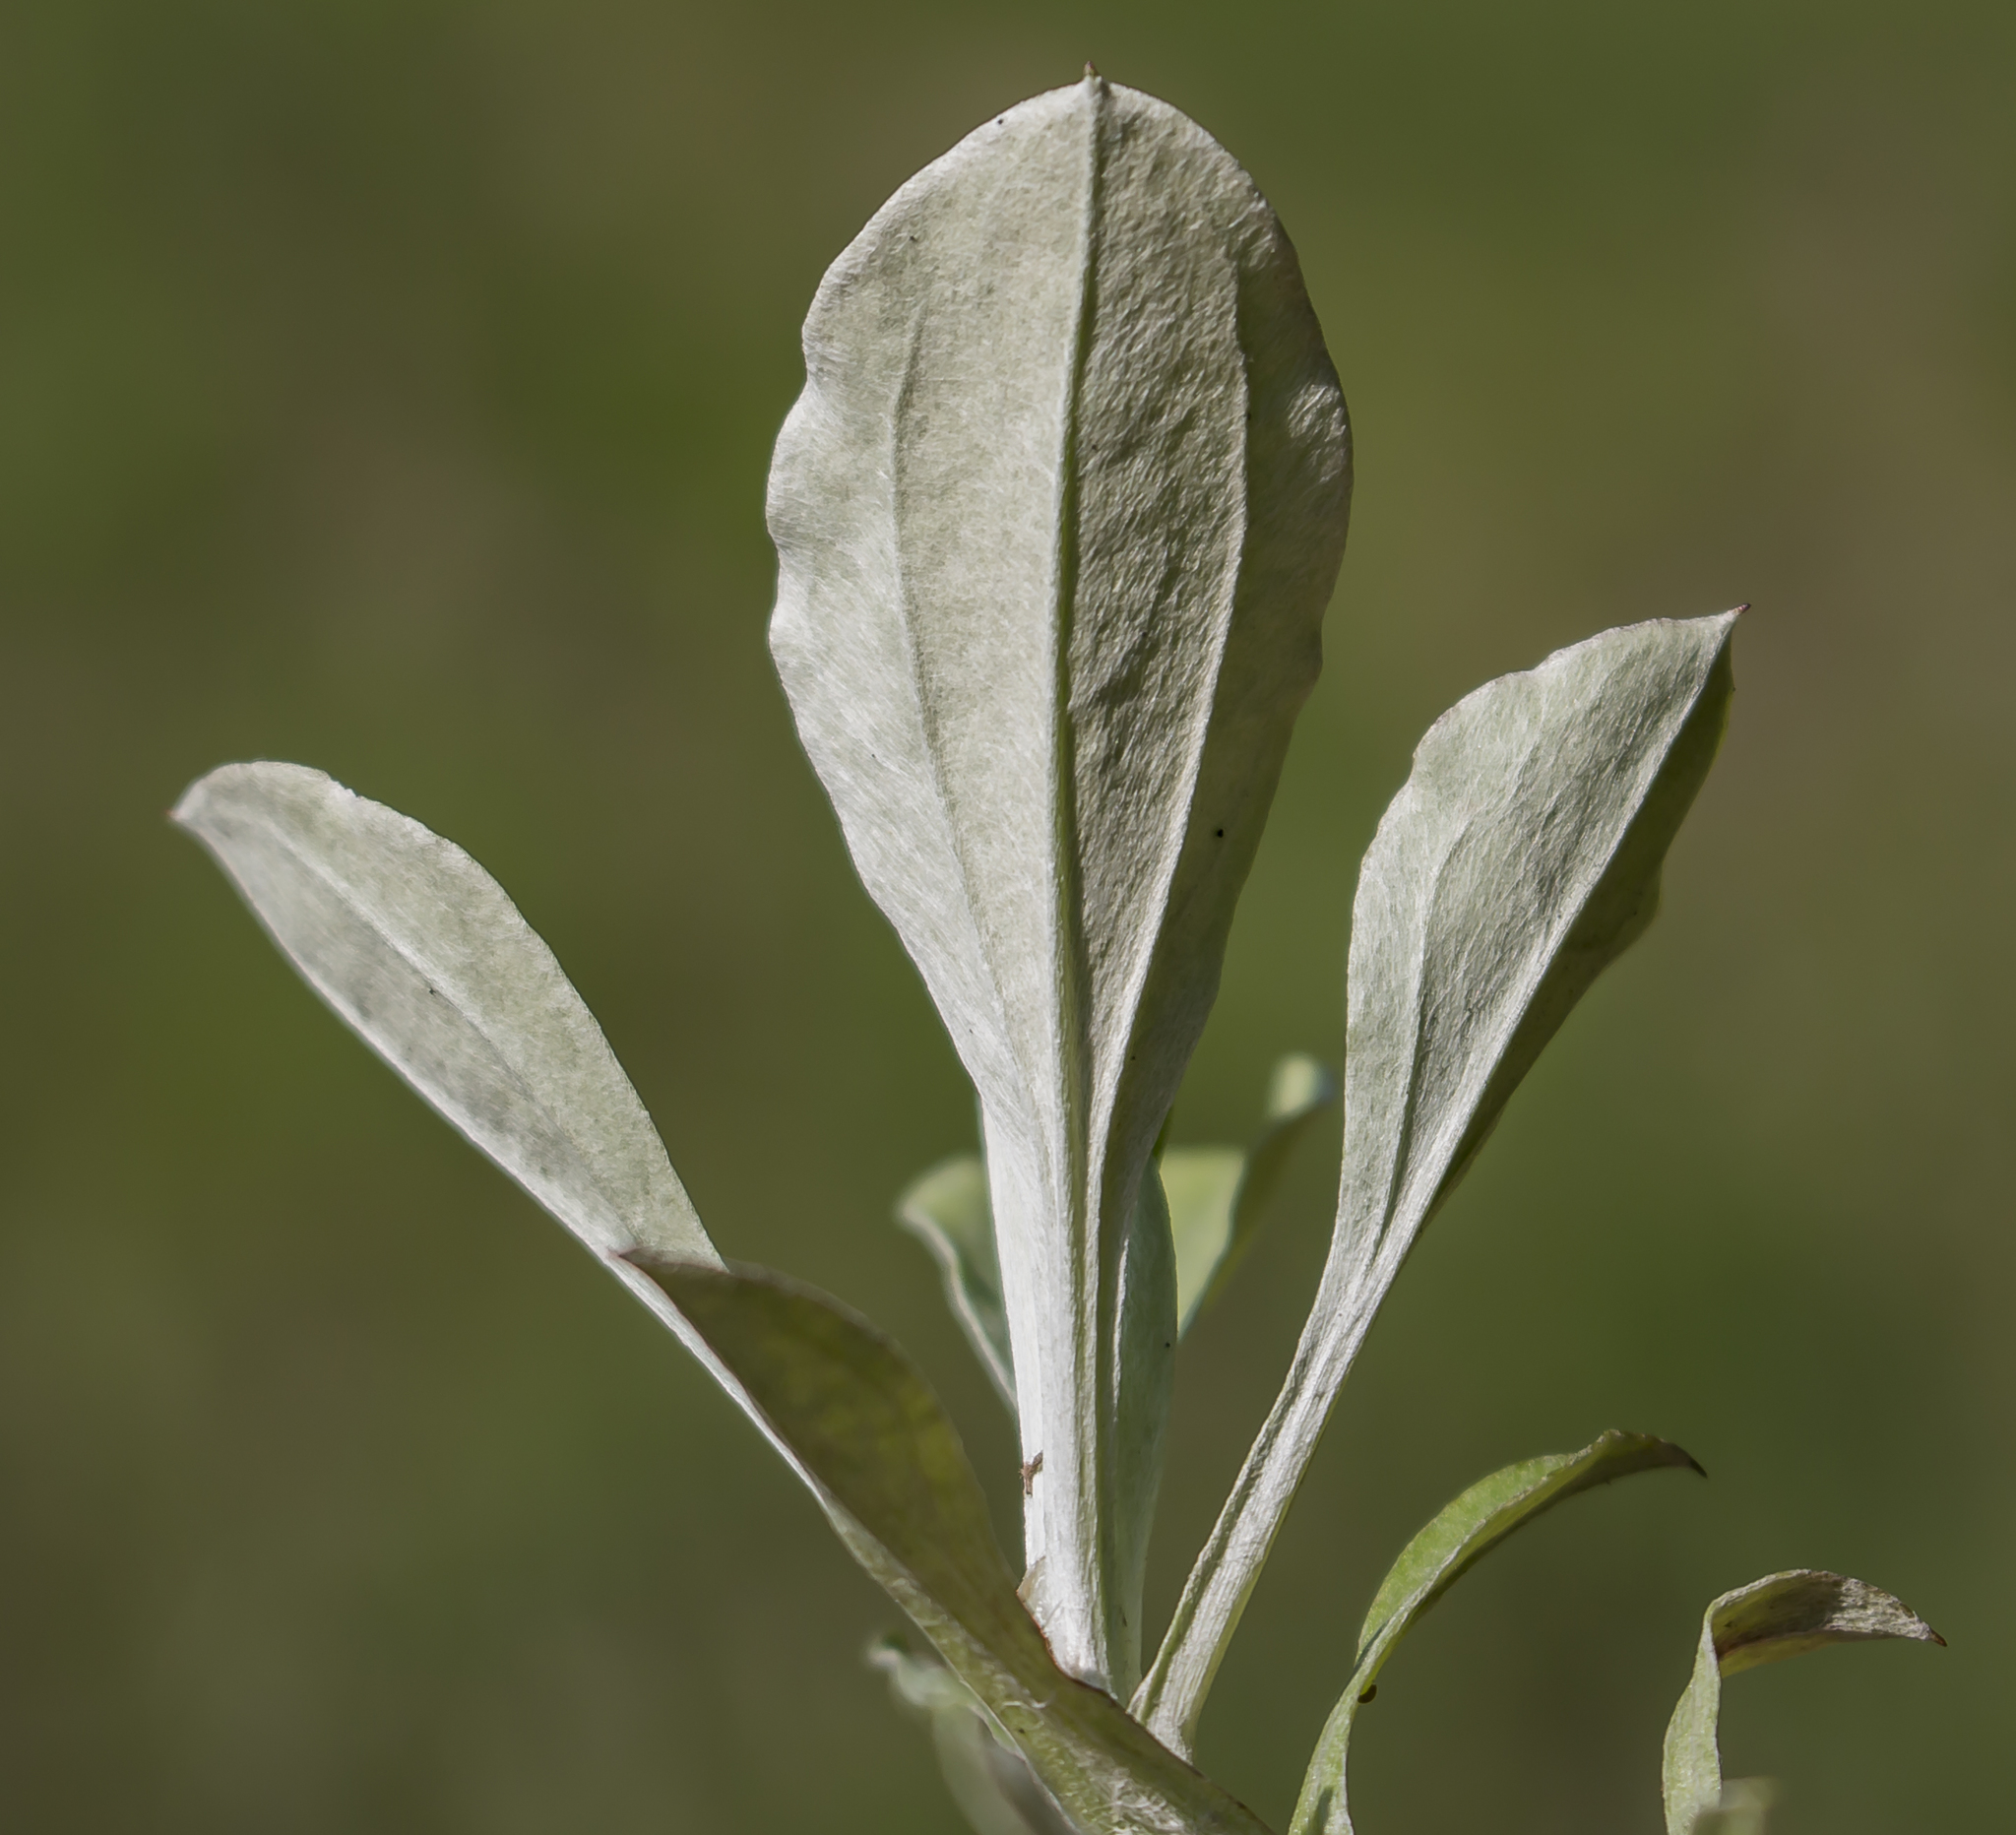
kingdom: Plantae
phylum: Tracheophyta
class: Magnoliopsida
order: Asterales
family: Asteraceae
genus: Antennaria
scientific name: Antennaria plantaginifolia
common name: Plantain-leaved pussytoes
